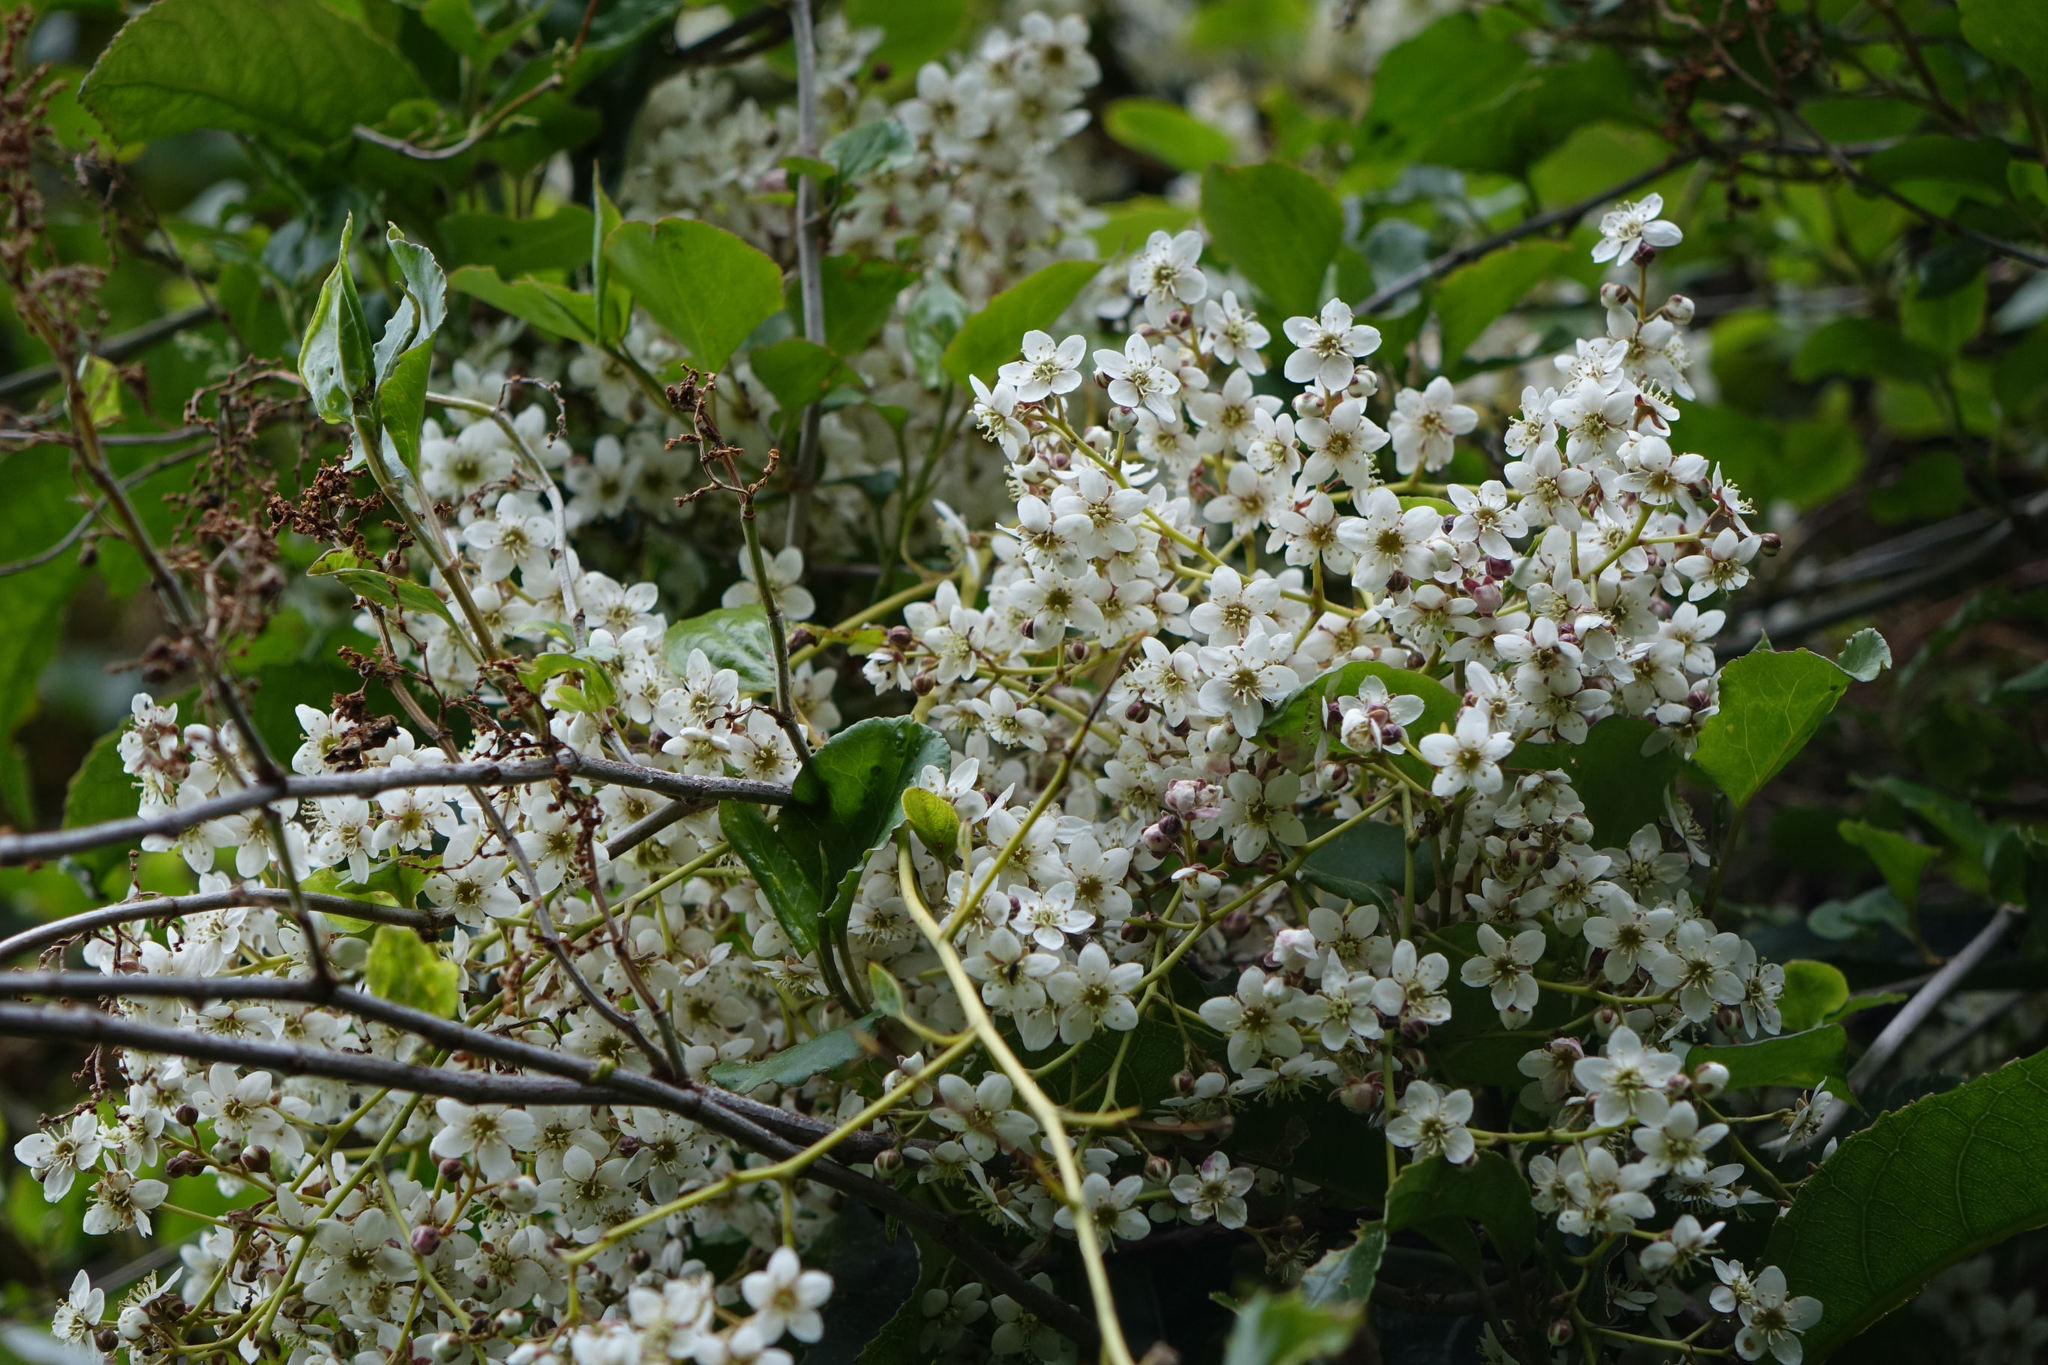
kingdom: Plantae
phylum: Tracheophyta
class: Magnoliopsida
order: Rosales
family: Rosaceae
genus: Rubus
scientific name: Rubus cissoides
